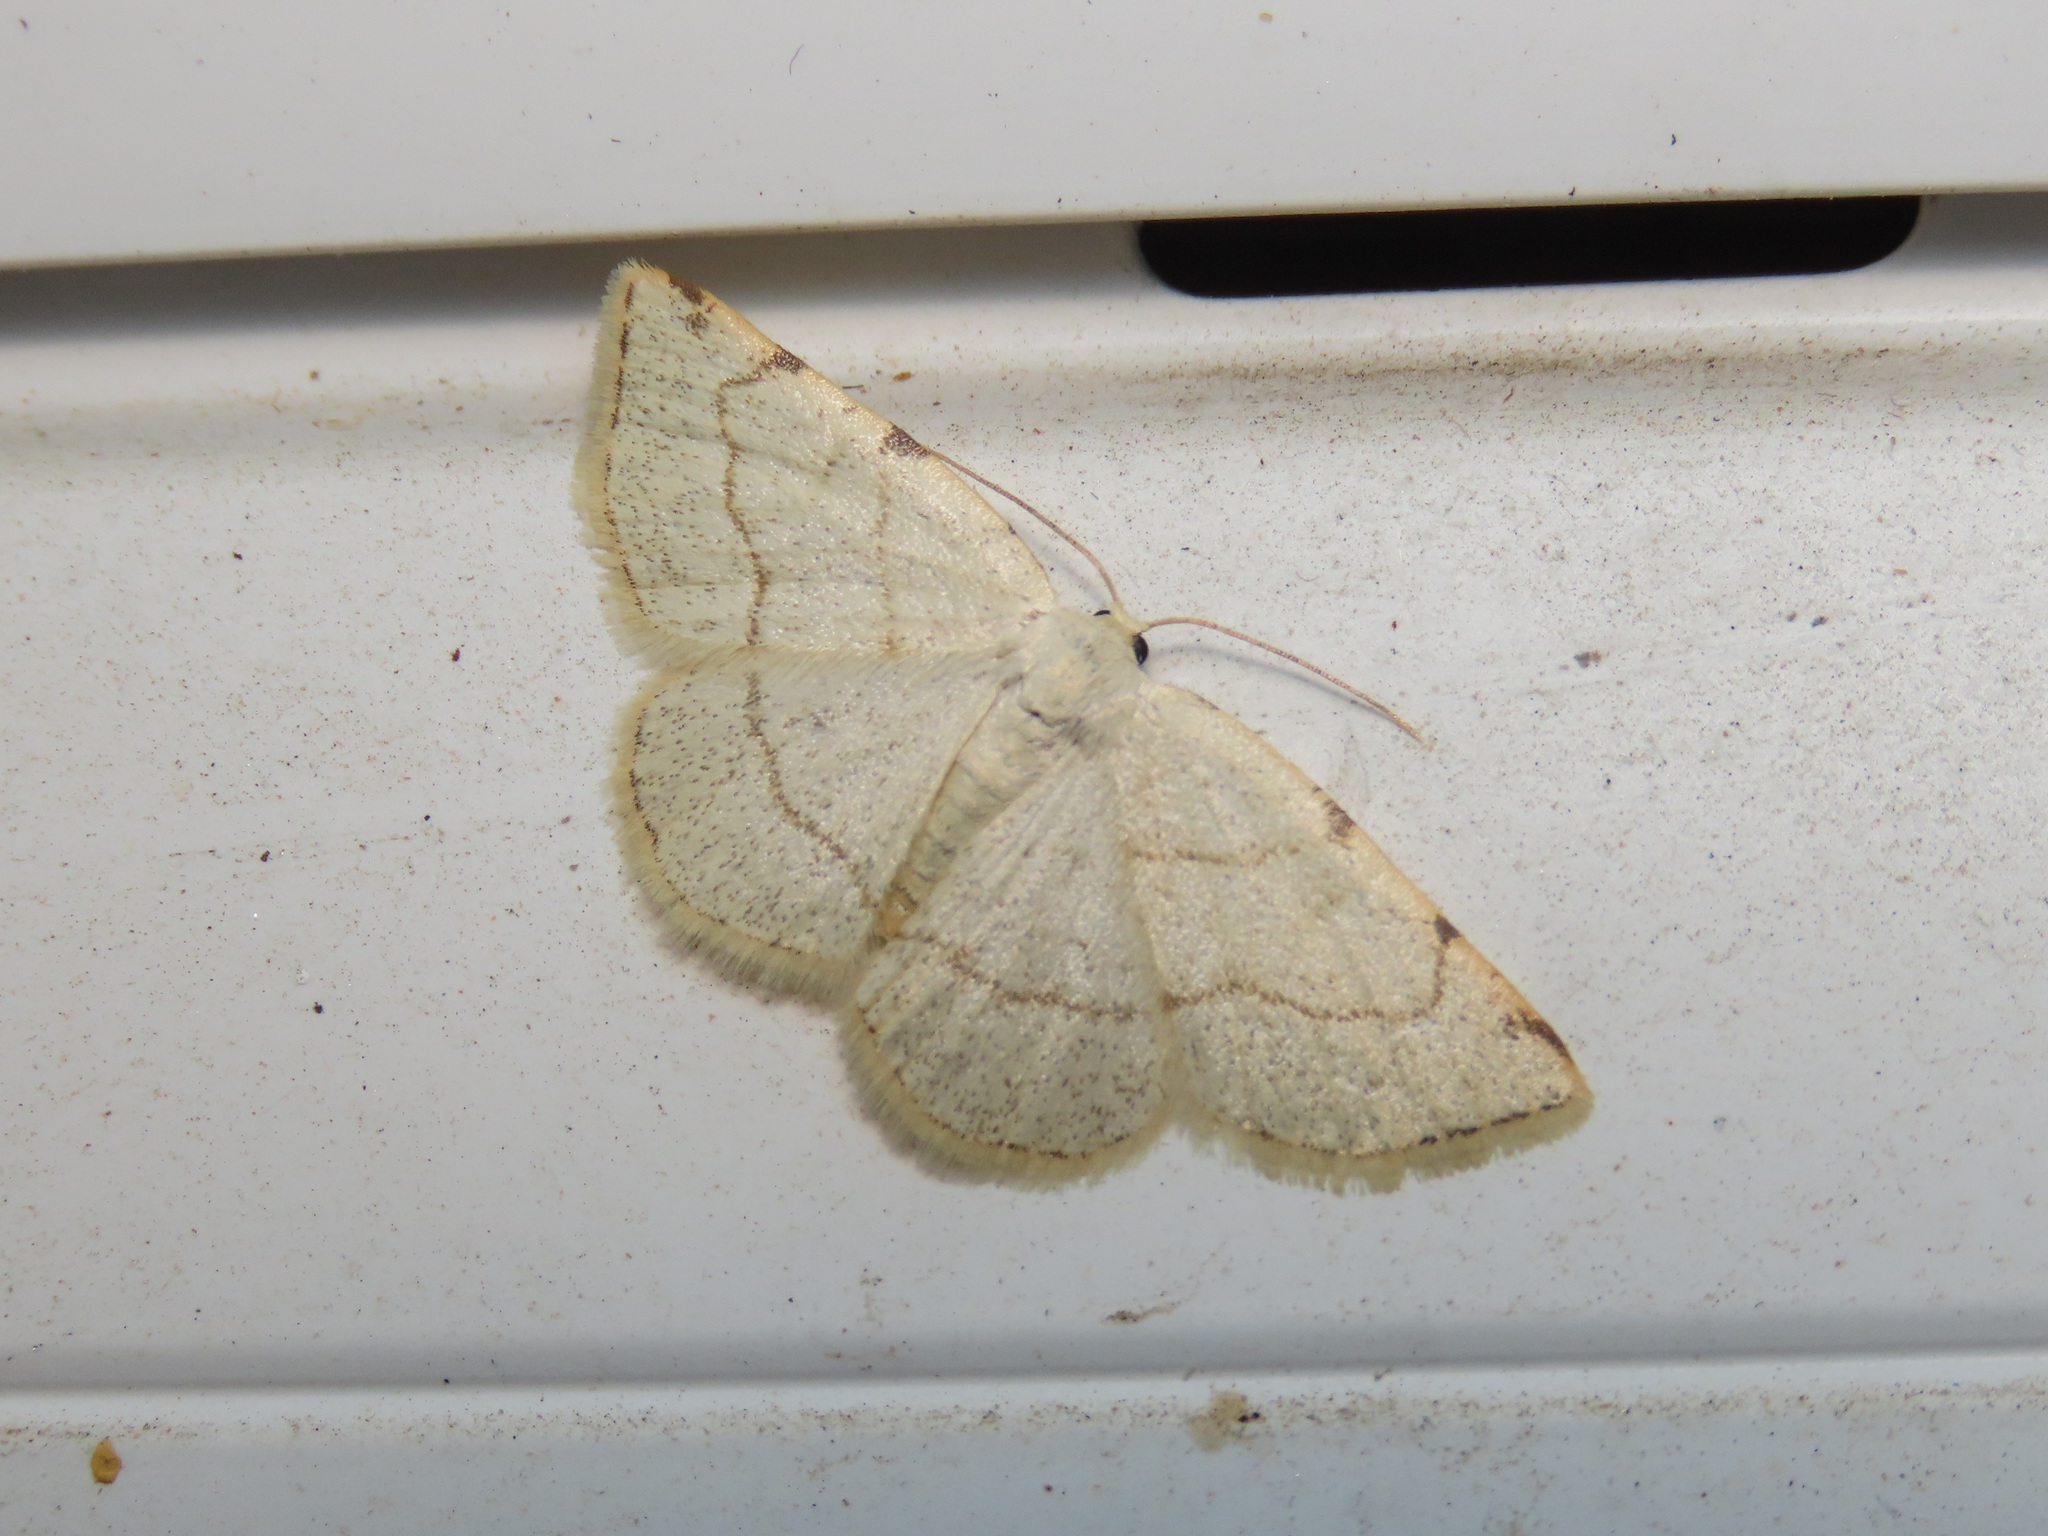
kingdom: Animalia
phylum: Arthropoda
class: Insecta
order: Lepidoptera
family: Geometridae
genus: Stegania
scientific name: Stegania trimaculata
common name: Dorset cream wave
